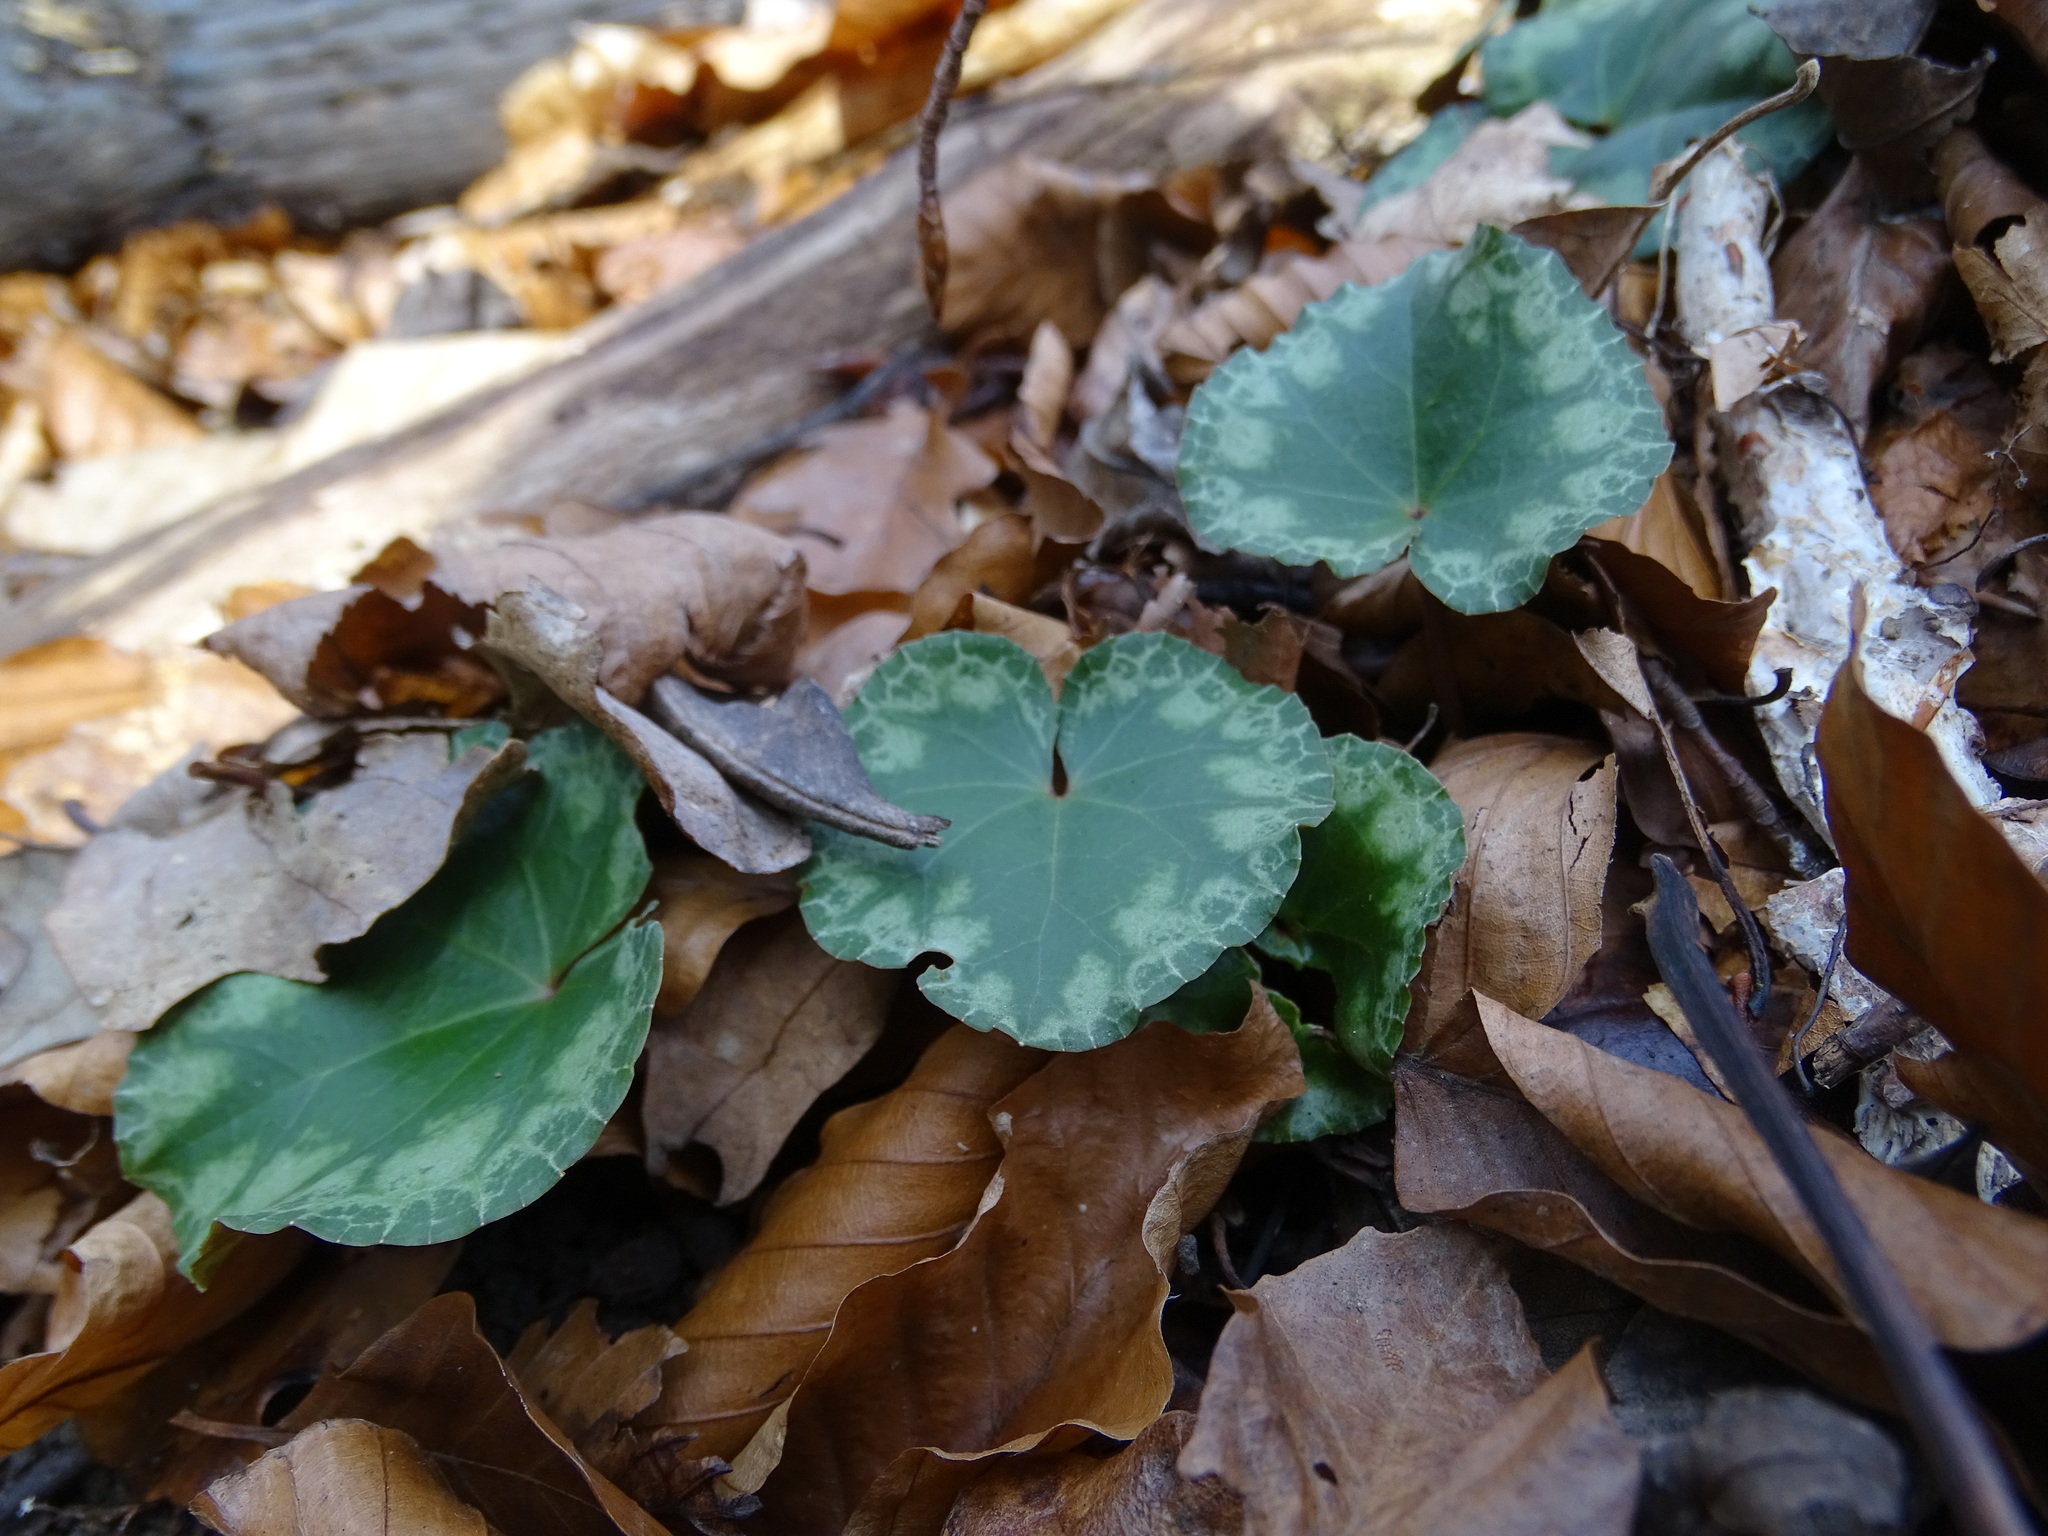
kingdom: Plantae
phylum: Tracheophyta
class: Magnoliopsida
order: Ericales
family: Primulaceae
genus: Cyclamen
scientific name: Cyclamen purpurascens
